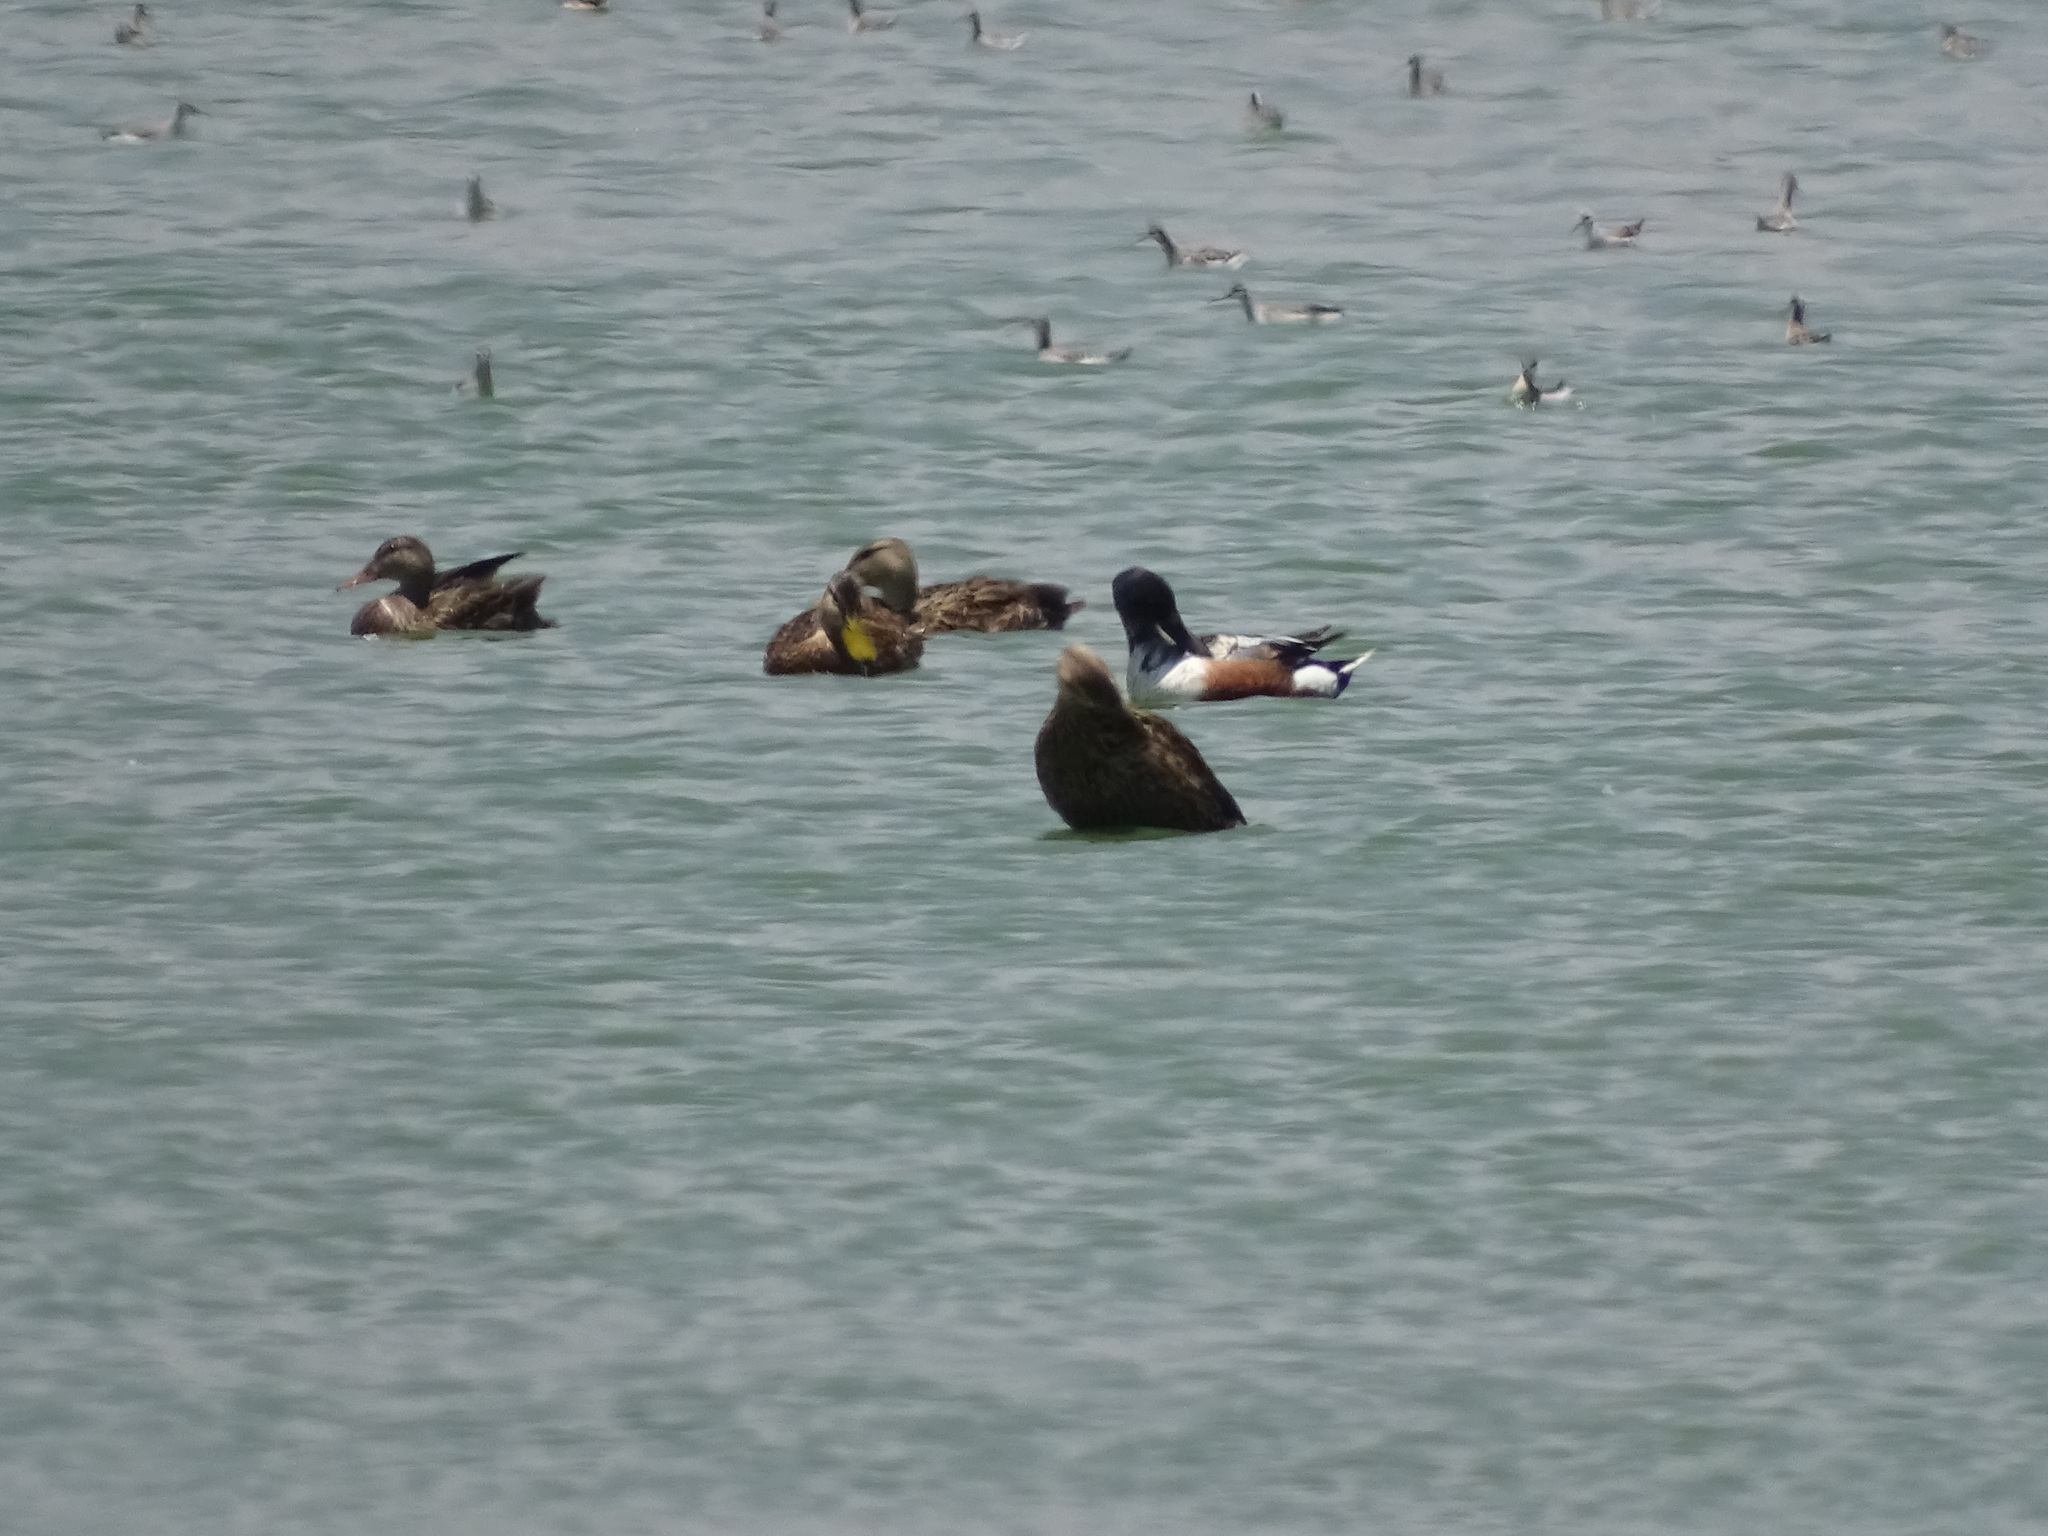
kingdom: Animalia
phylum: Chordata
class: Aves
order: Anseriformes
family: Anatidae
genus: Spatula
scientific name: Spatula clypeata
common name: Northern shoveler
